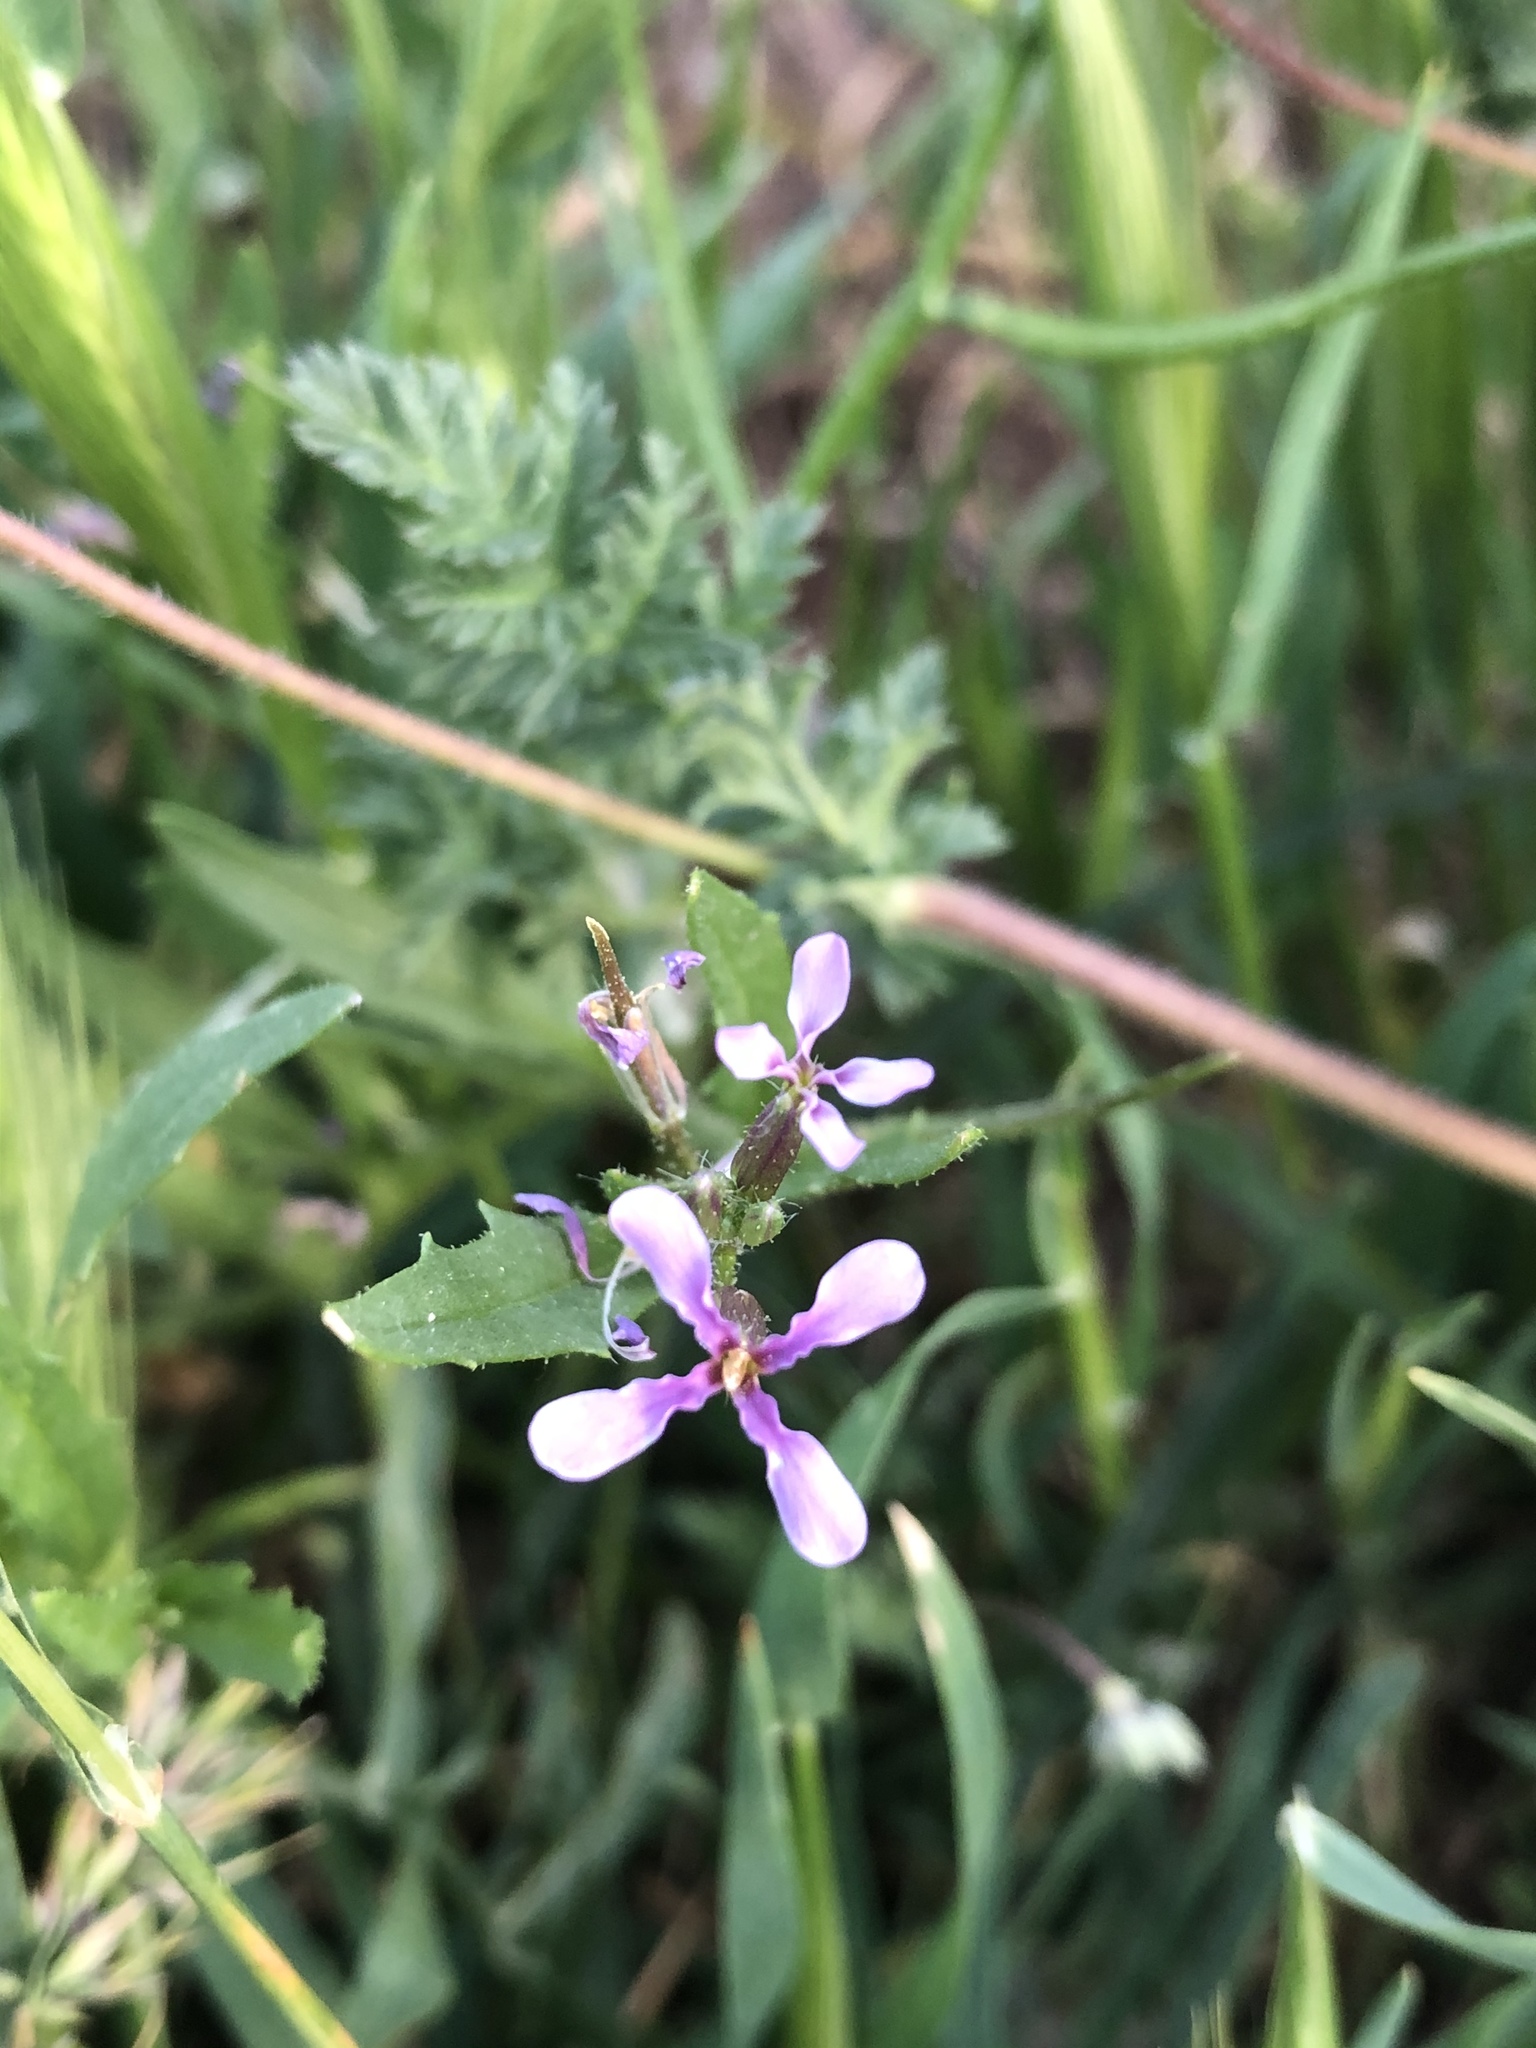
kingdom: Plantae
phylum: Tracheophyta
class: Magnoliopsida
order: Brassicales
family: Brassicaceae
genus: Chorispora
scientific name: Chorispora tenella
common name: Crossflower
